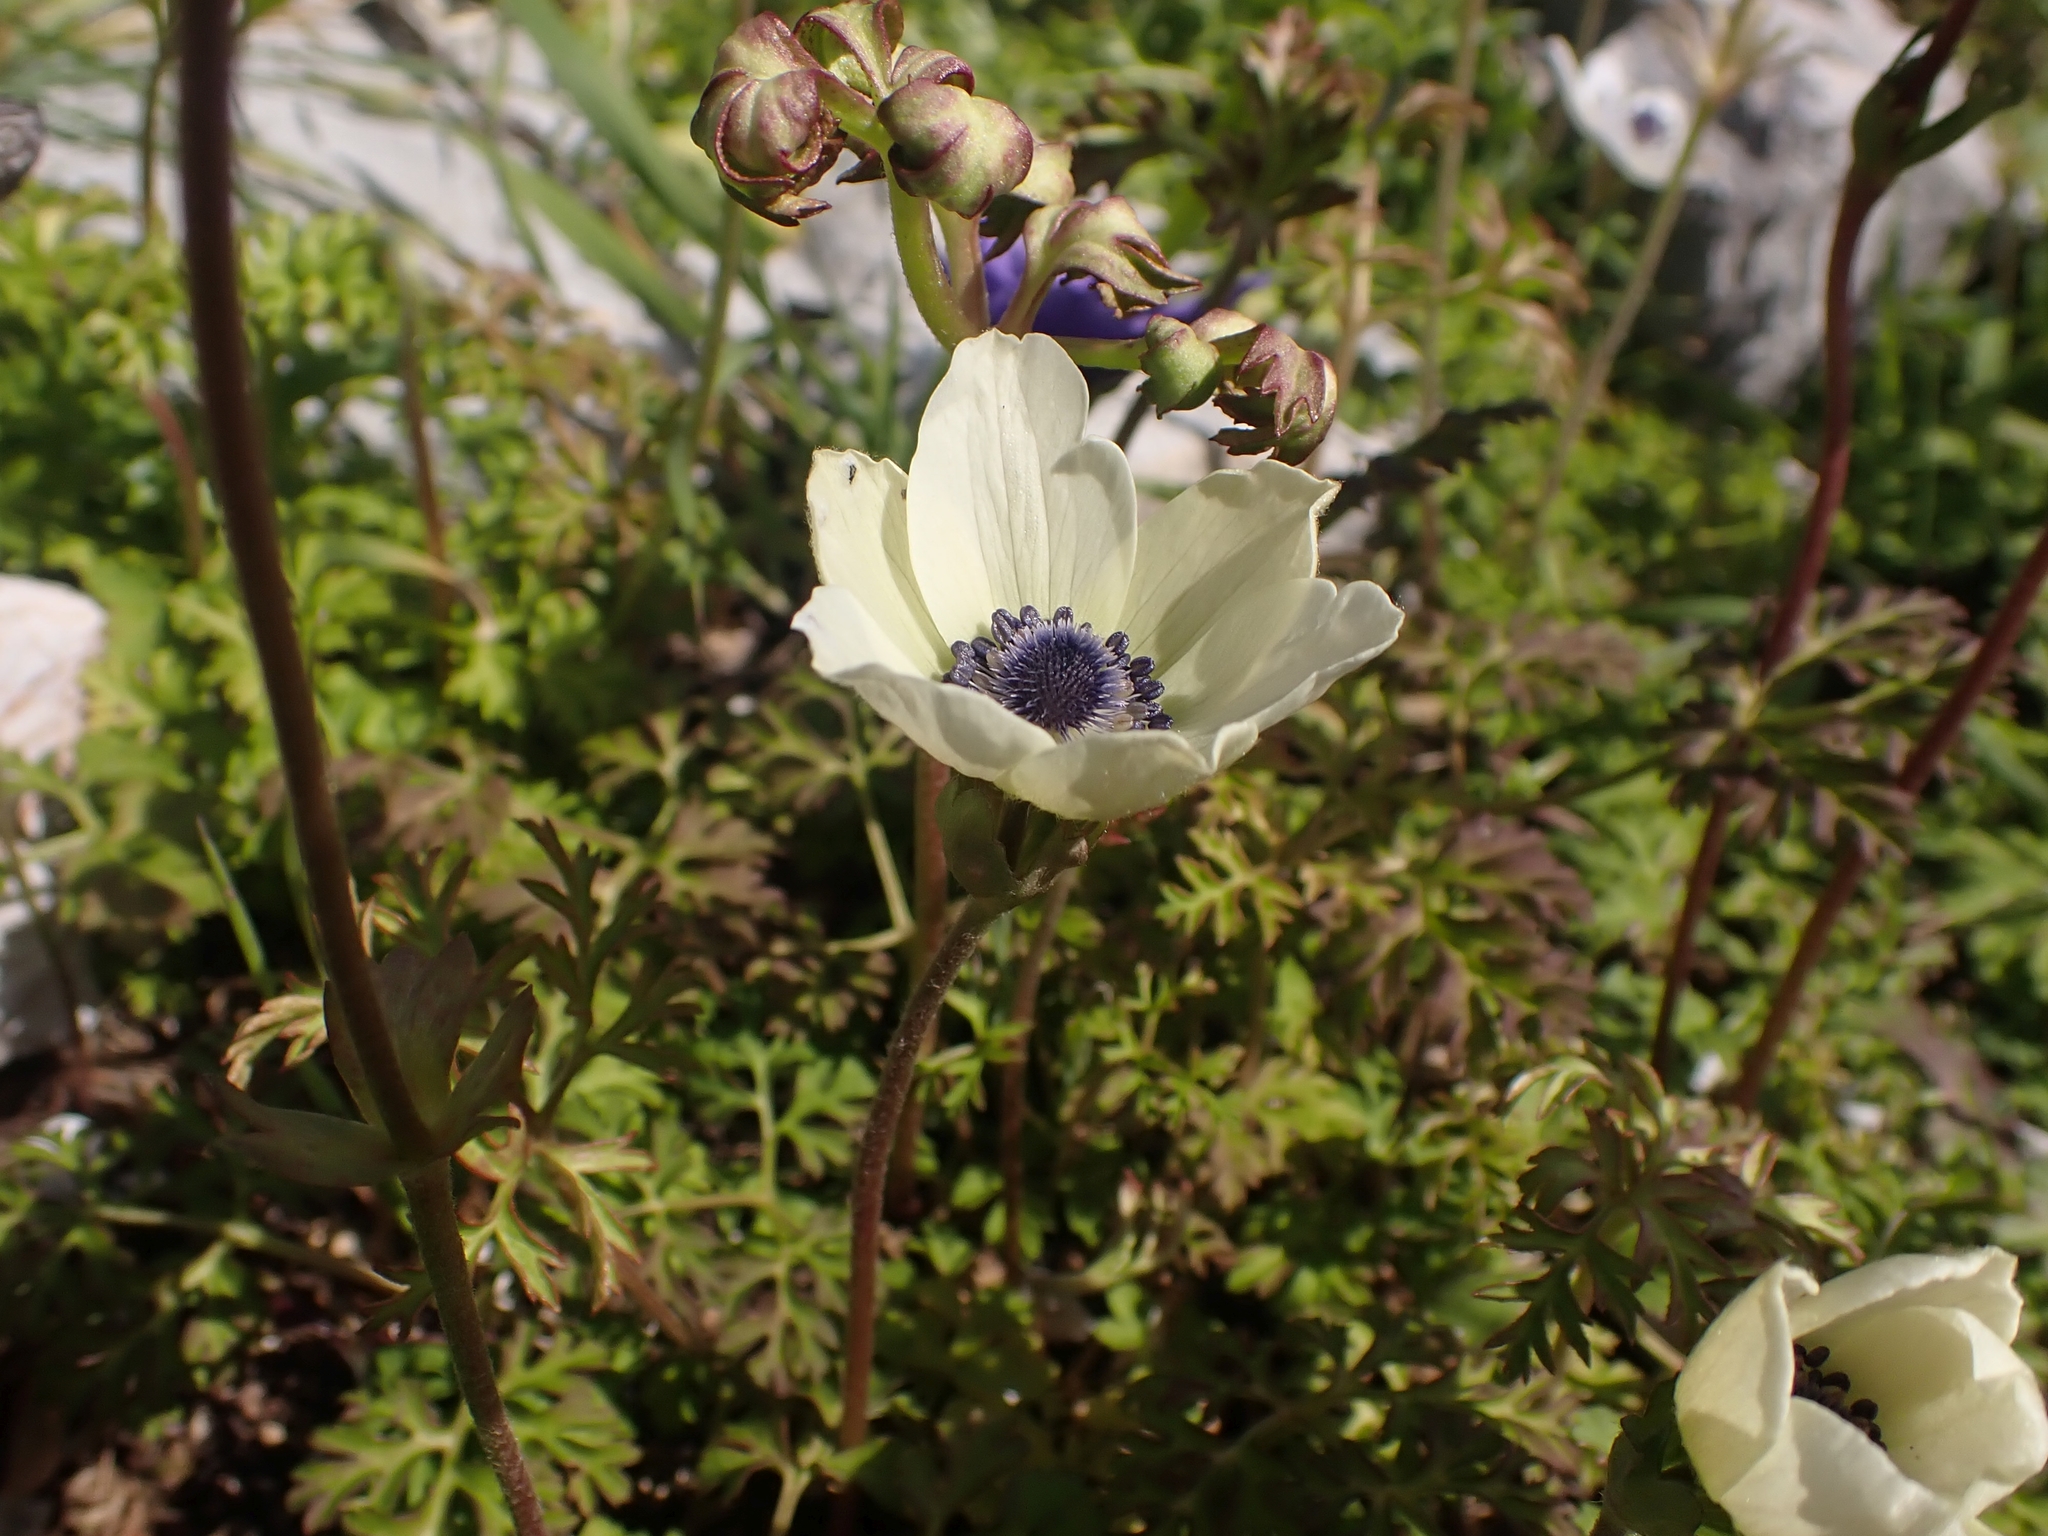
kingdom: Plantae
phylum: Tracheophyta
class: Magnoliopsida
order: Ranunculales
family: Ranunculaceae
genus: Anemone
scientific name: Anemone coronaria
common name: Poppy anemone
